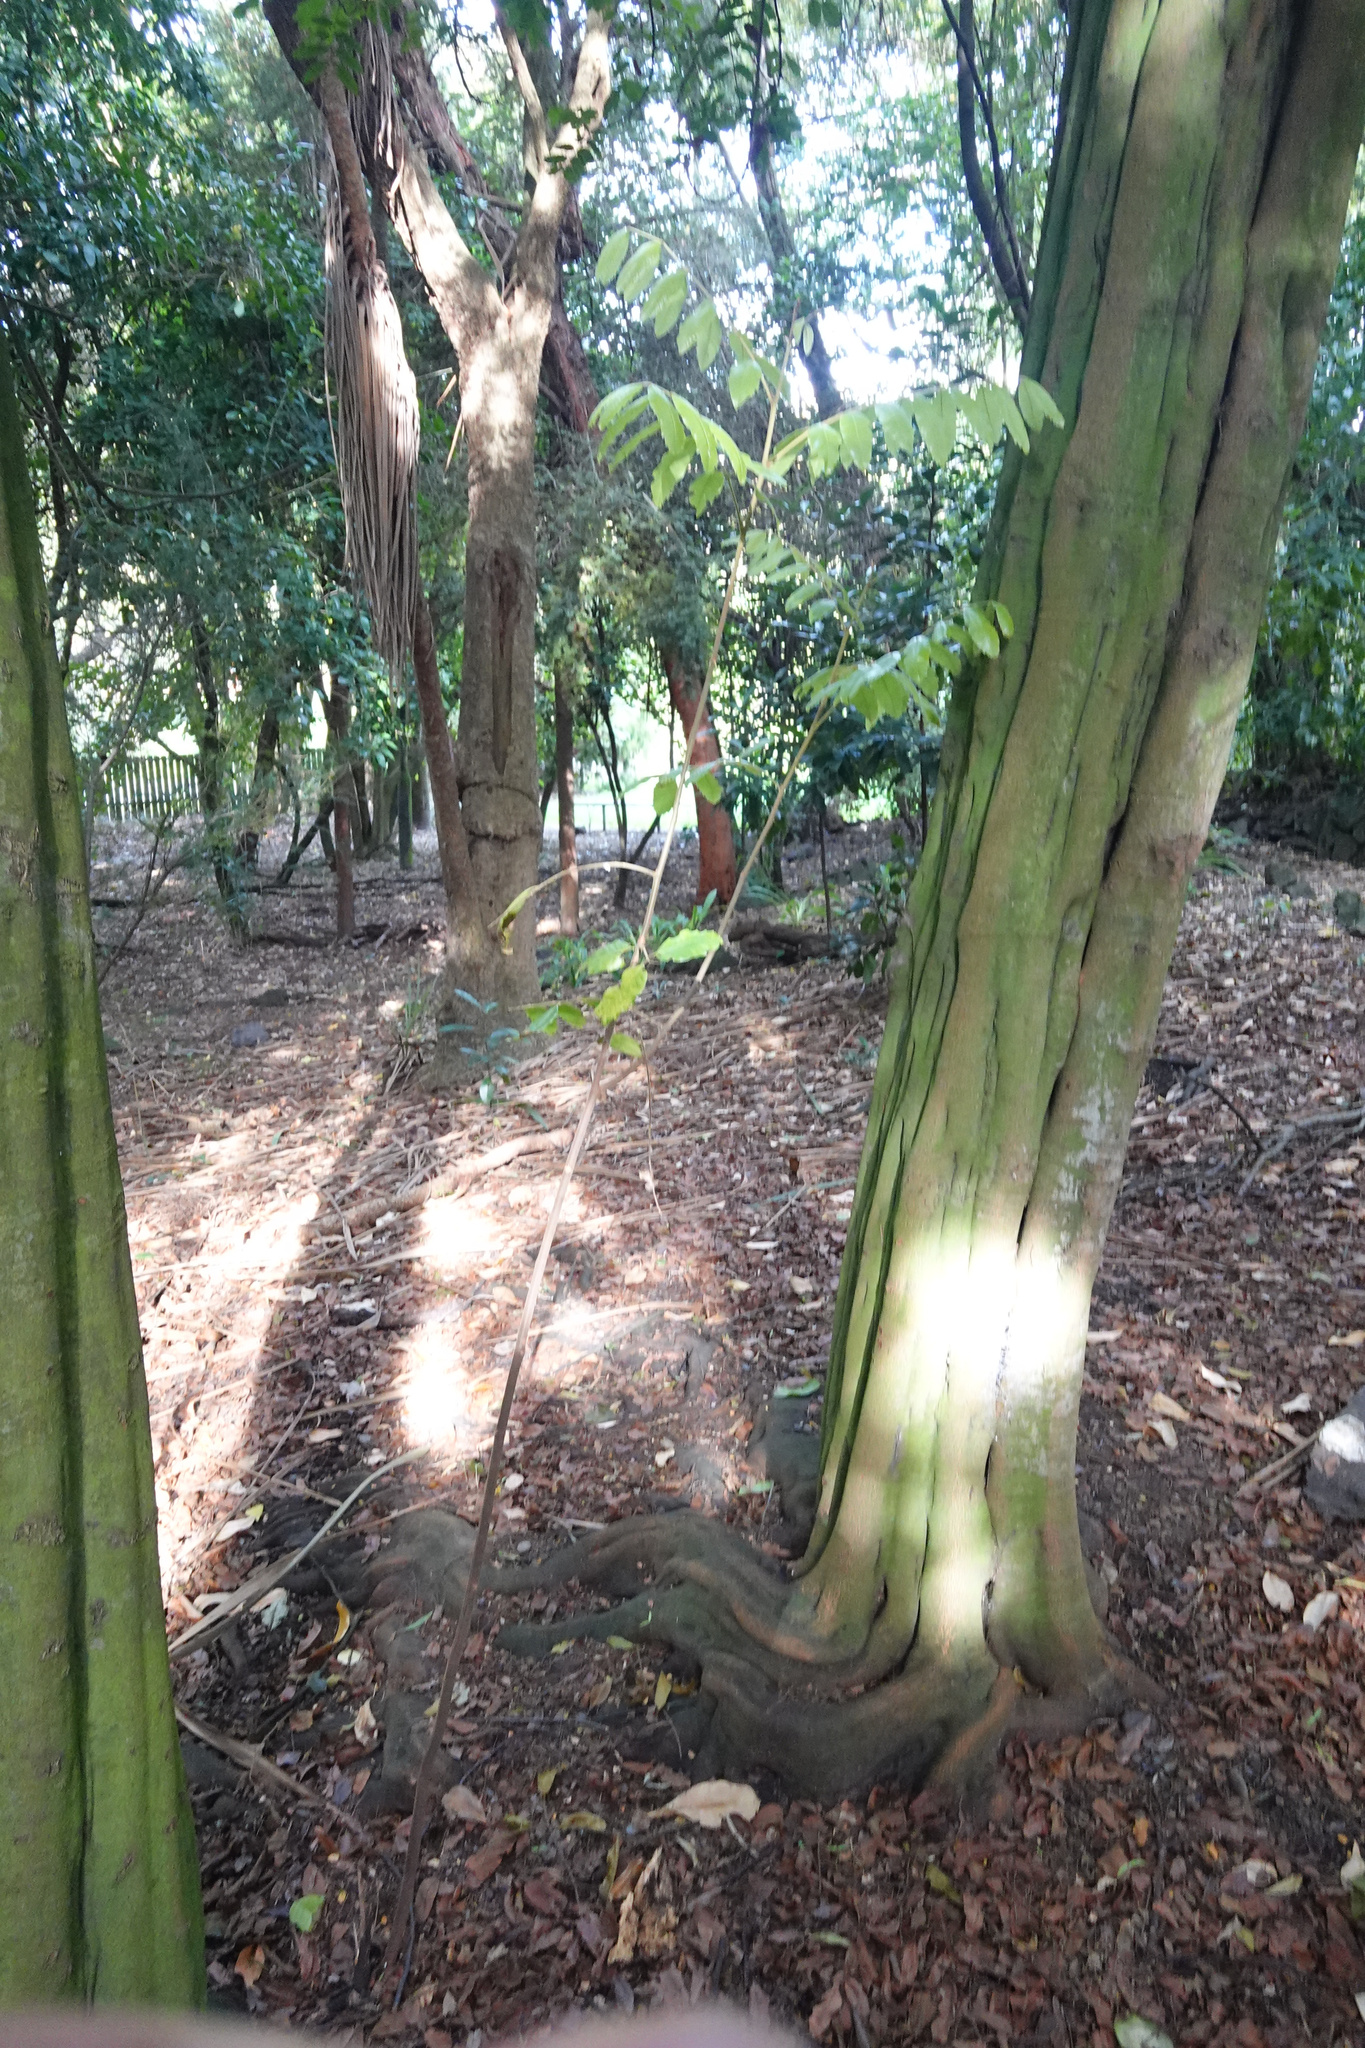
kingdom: Plantae
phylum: Tracheophyta
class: Magnoliopsida
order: Sapindales
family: Sapindaceae
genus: Alectryon
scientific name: Alectryon excelsus
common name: Three kings titoki
